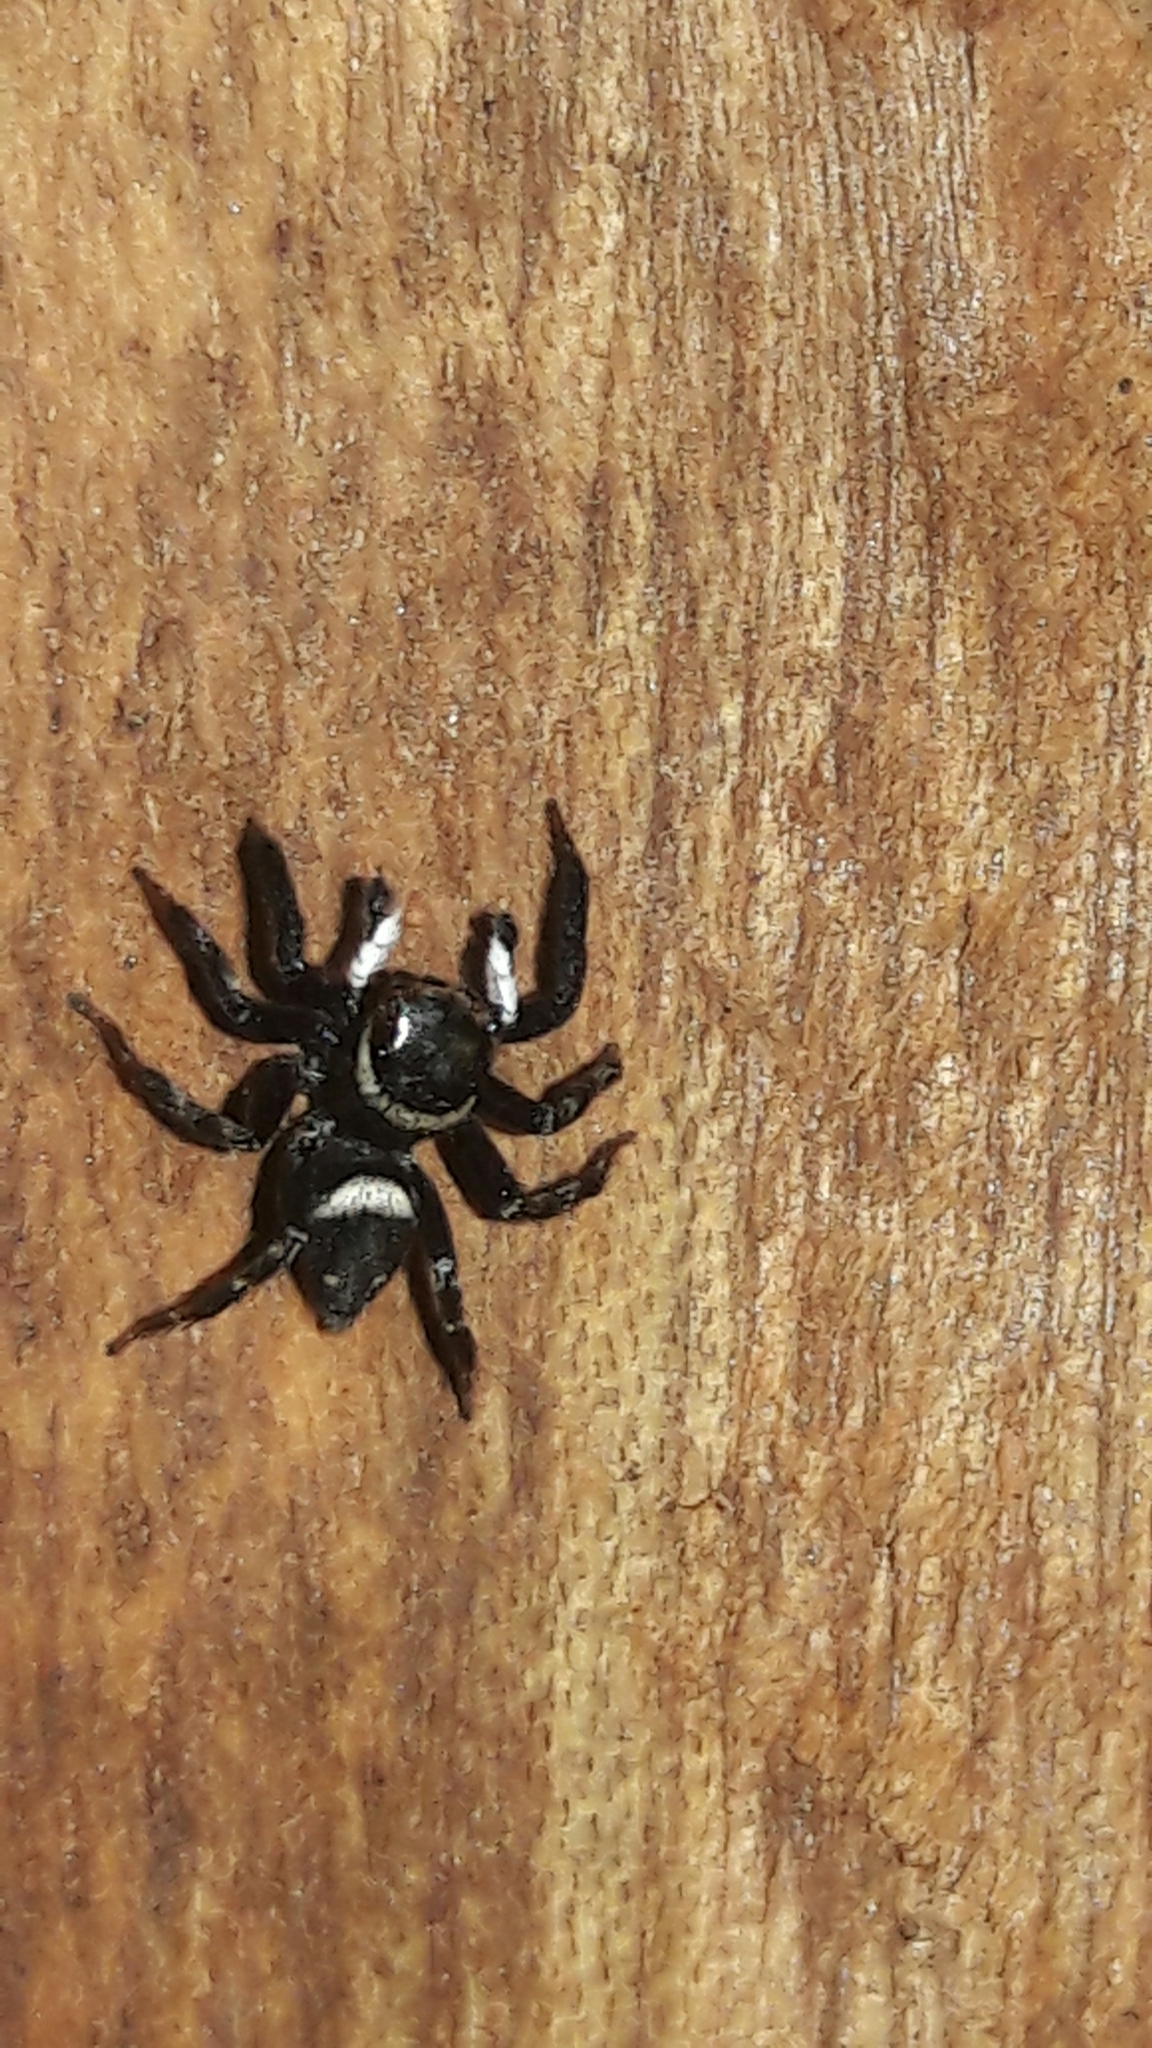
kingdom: Animalia
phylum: Arthropoda
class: Arachnida
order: Araneae
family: Salticidae
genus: Hasarius
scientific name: Hasarius adansoni
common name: Jumping spider
